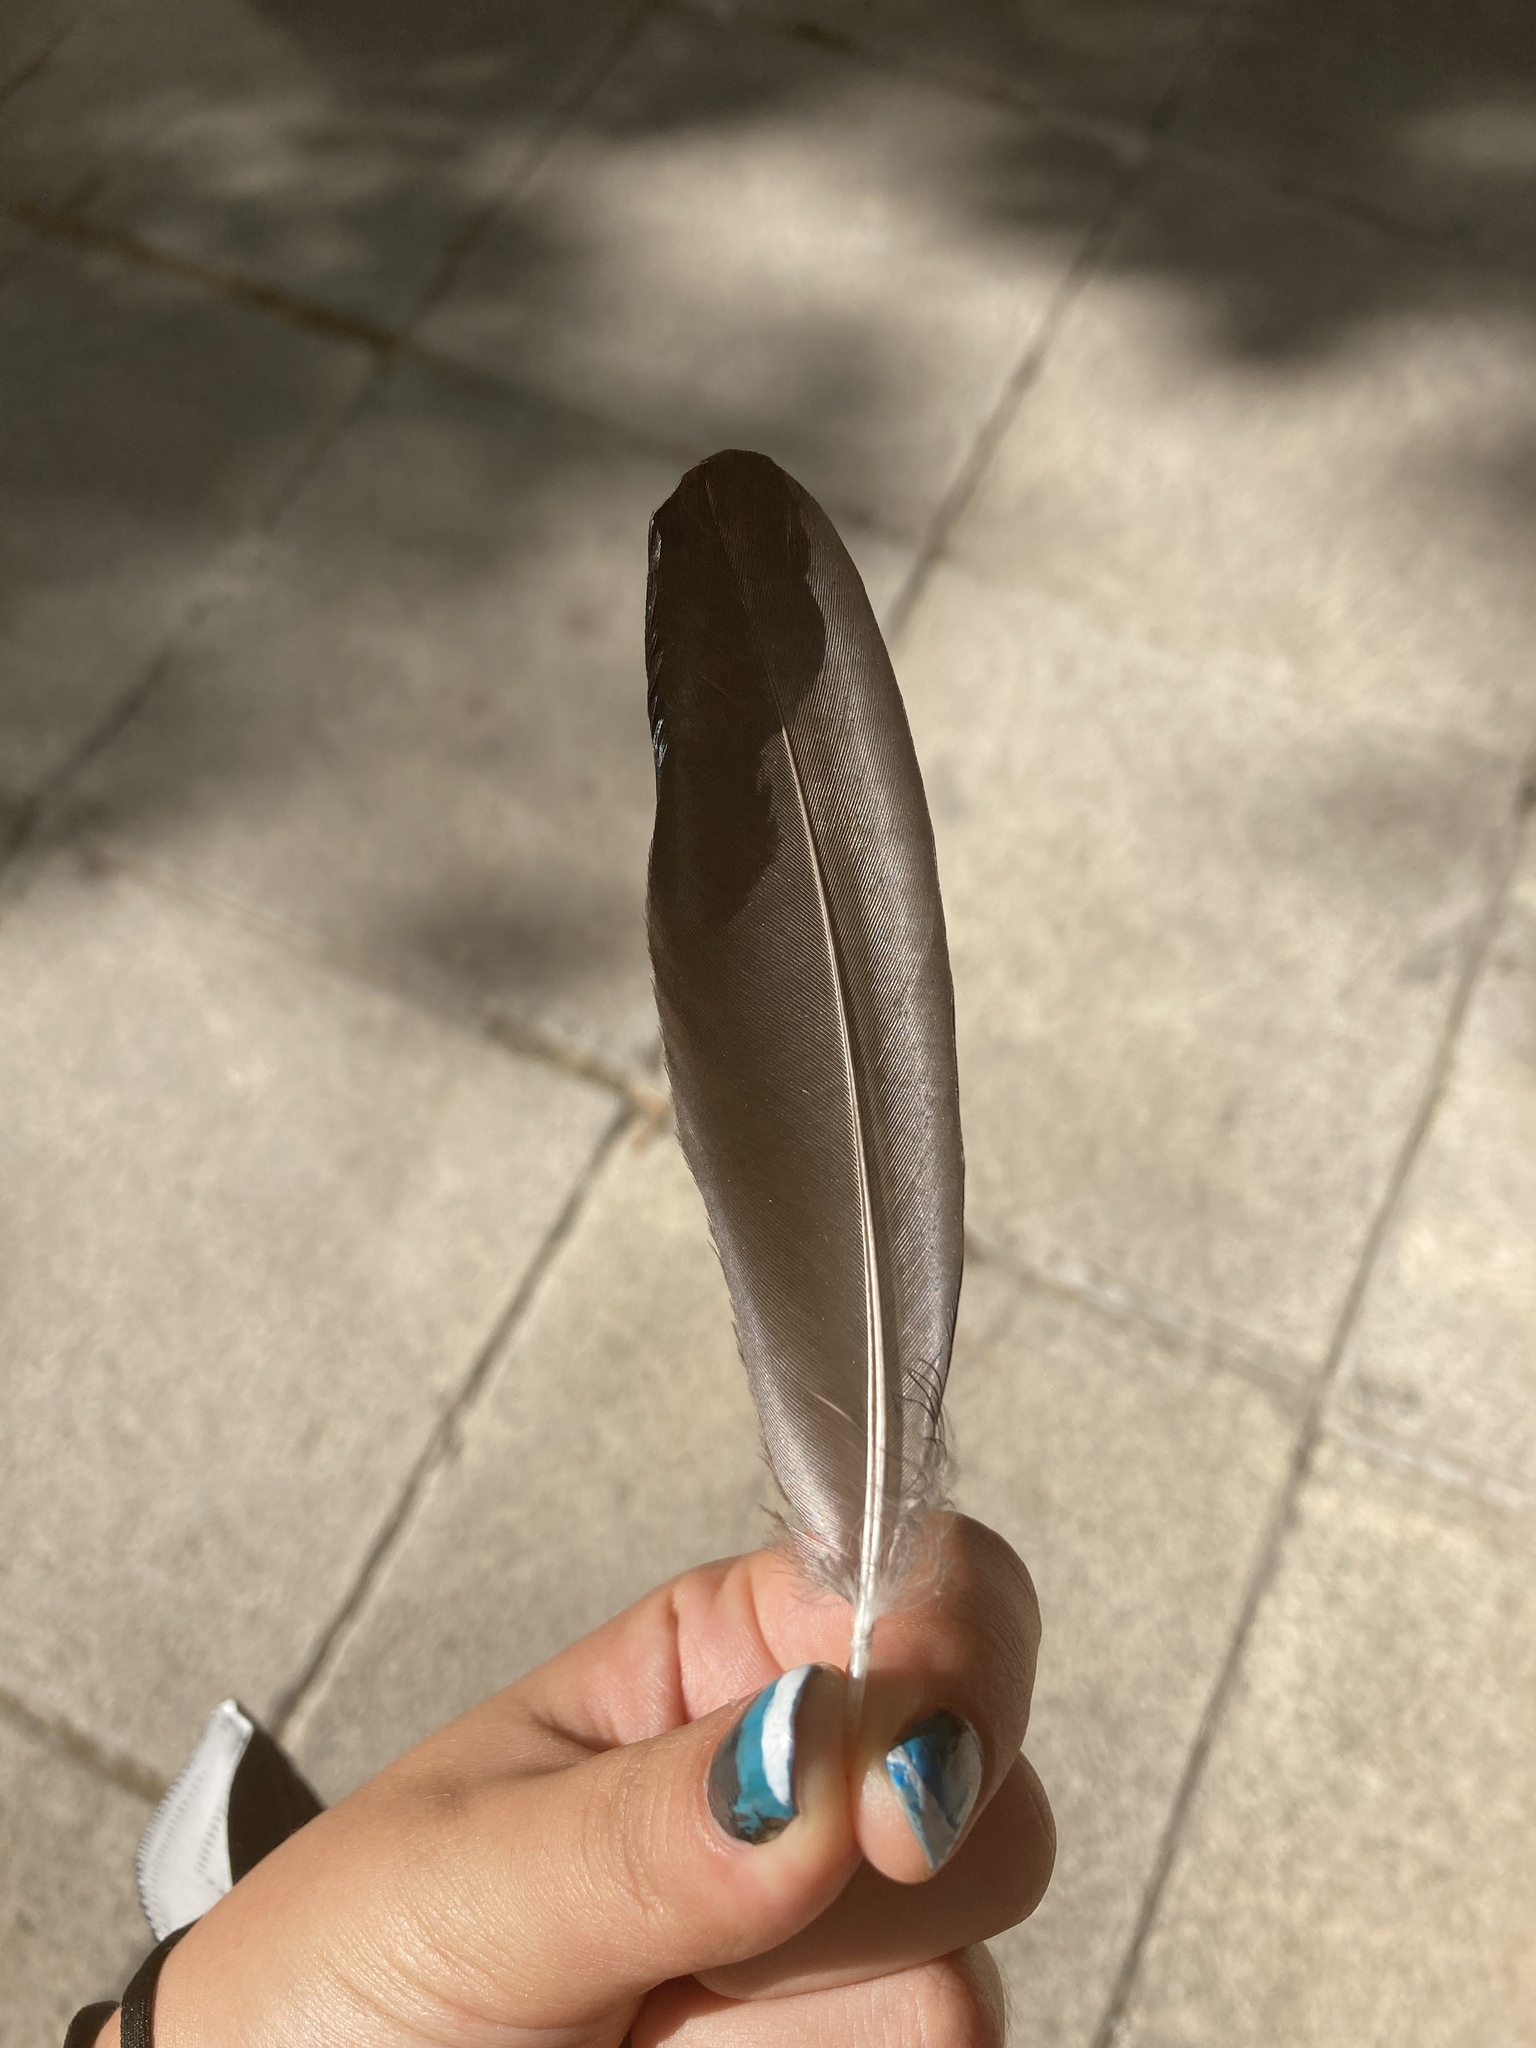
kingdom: Animalia
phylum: Chordata
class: Aves
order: Passeriformes
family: Corvidae
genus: Pica
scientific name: Pica pica
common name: Eurasian magpie
